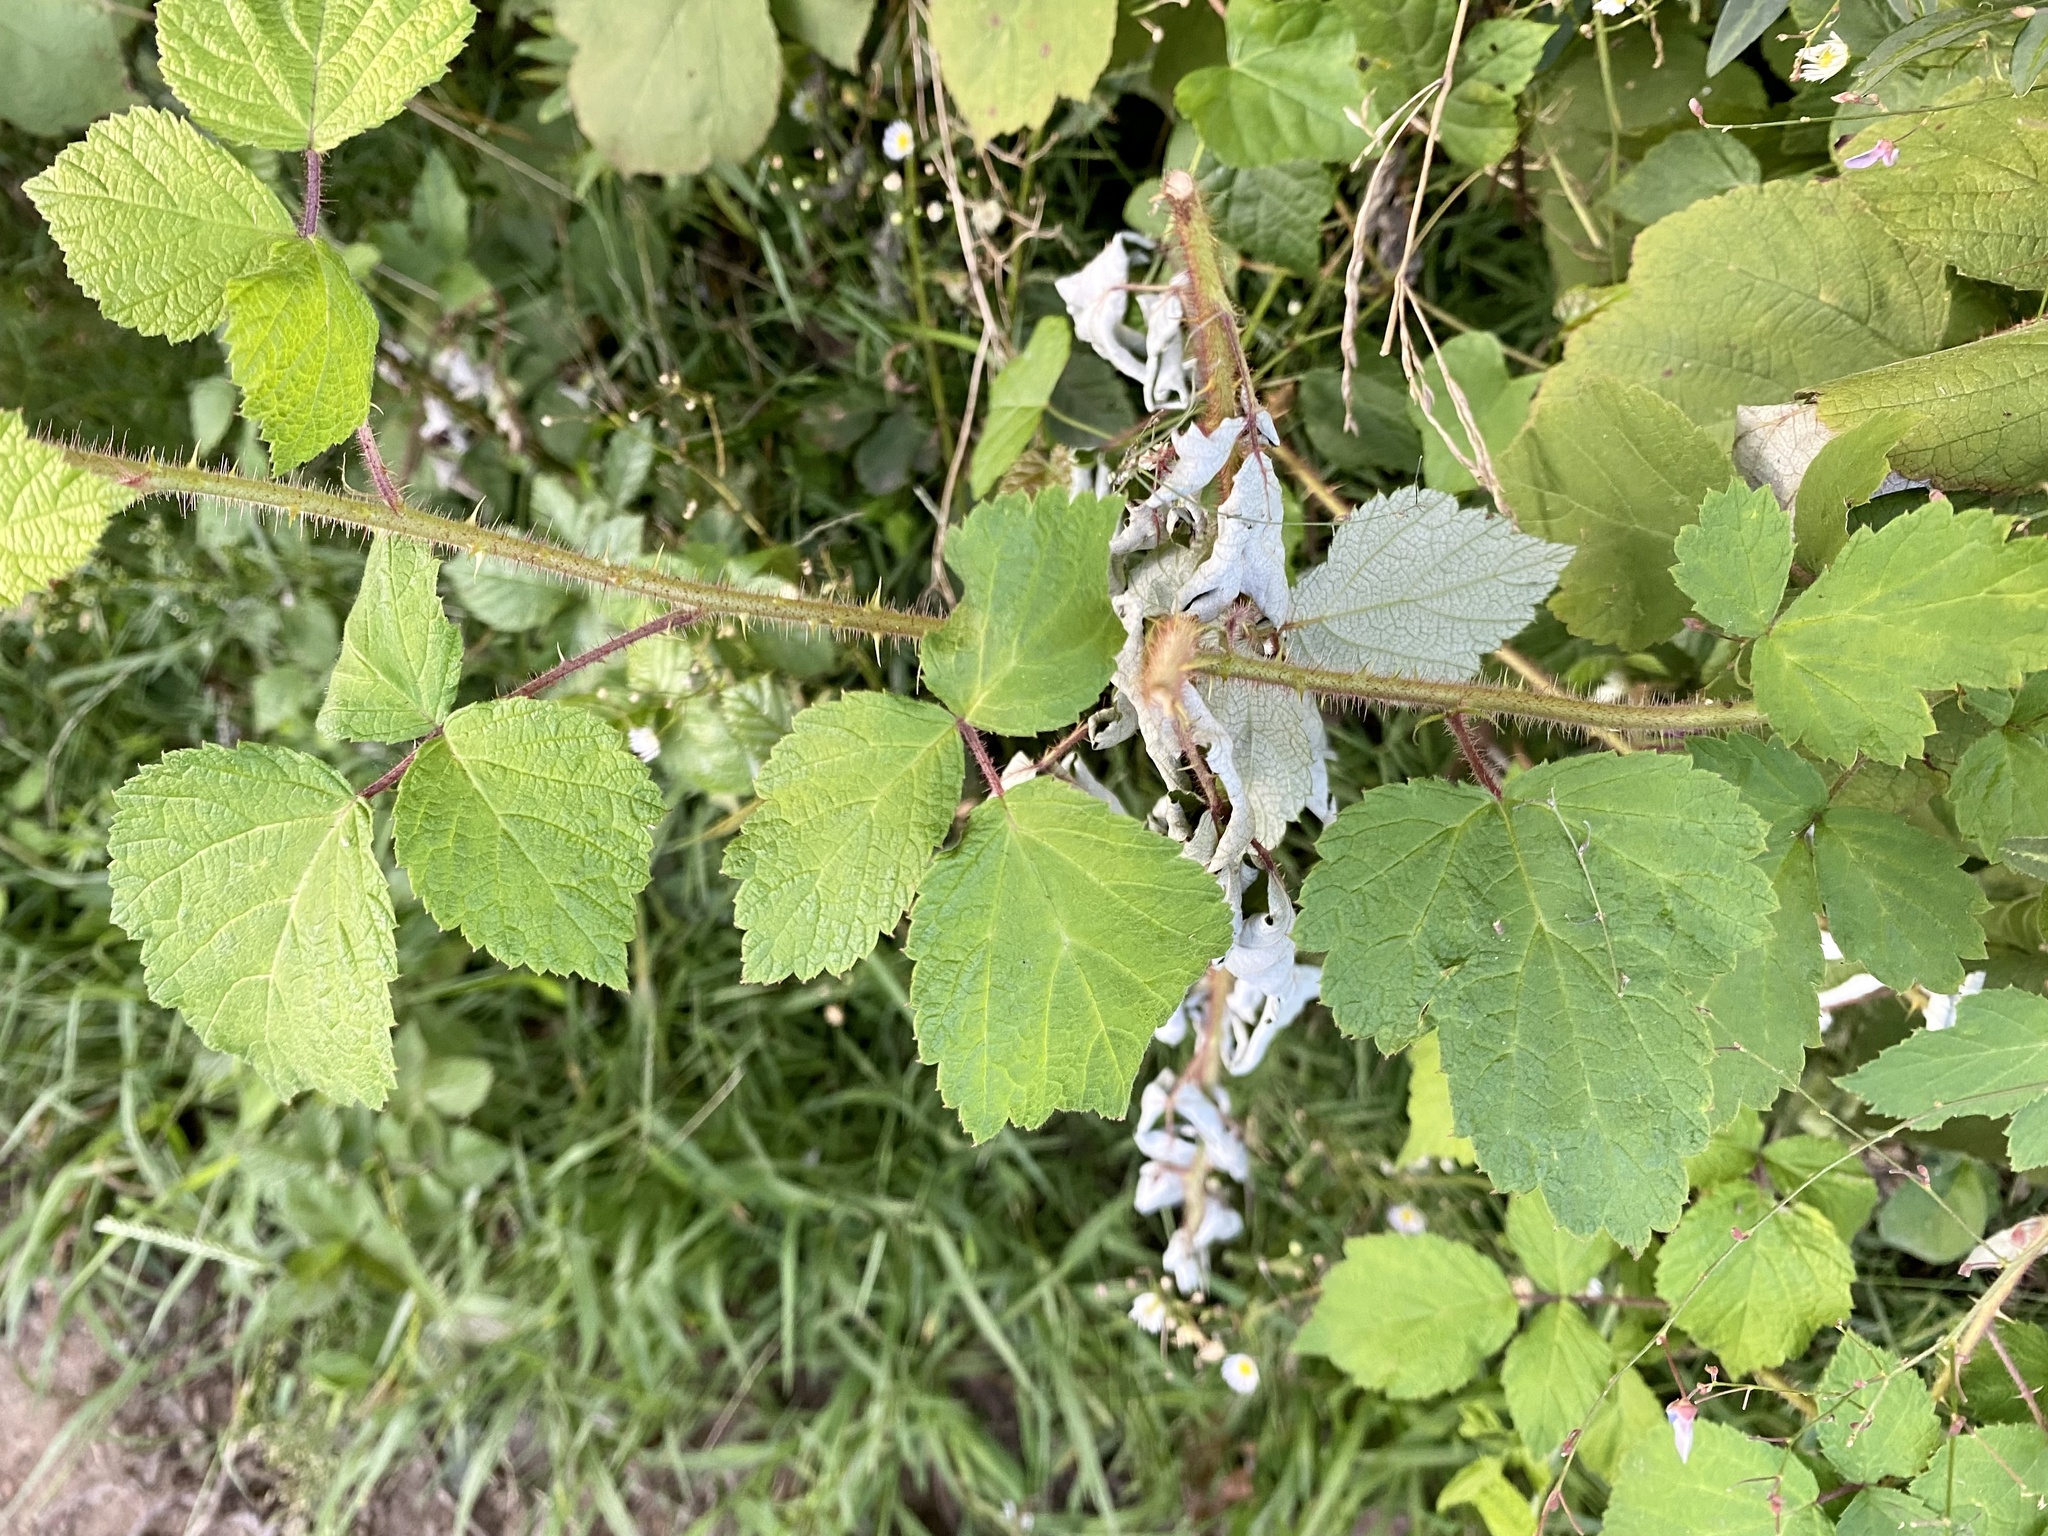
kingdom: Plantae
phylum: Tracheophyta
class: Magnoliopsida
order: Rosales
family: Rosaceae
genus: Rubus
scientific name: Rubus phoenicolasius
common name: Japanese wineberry
